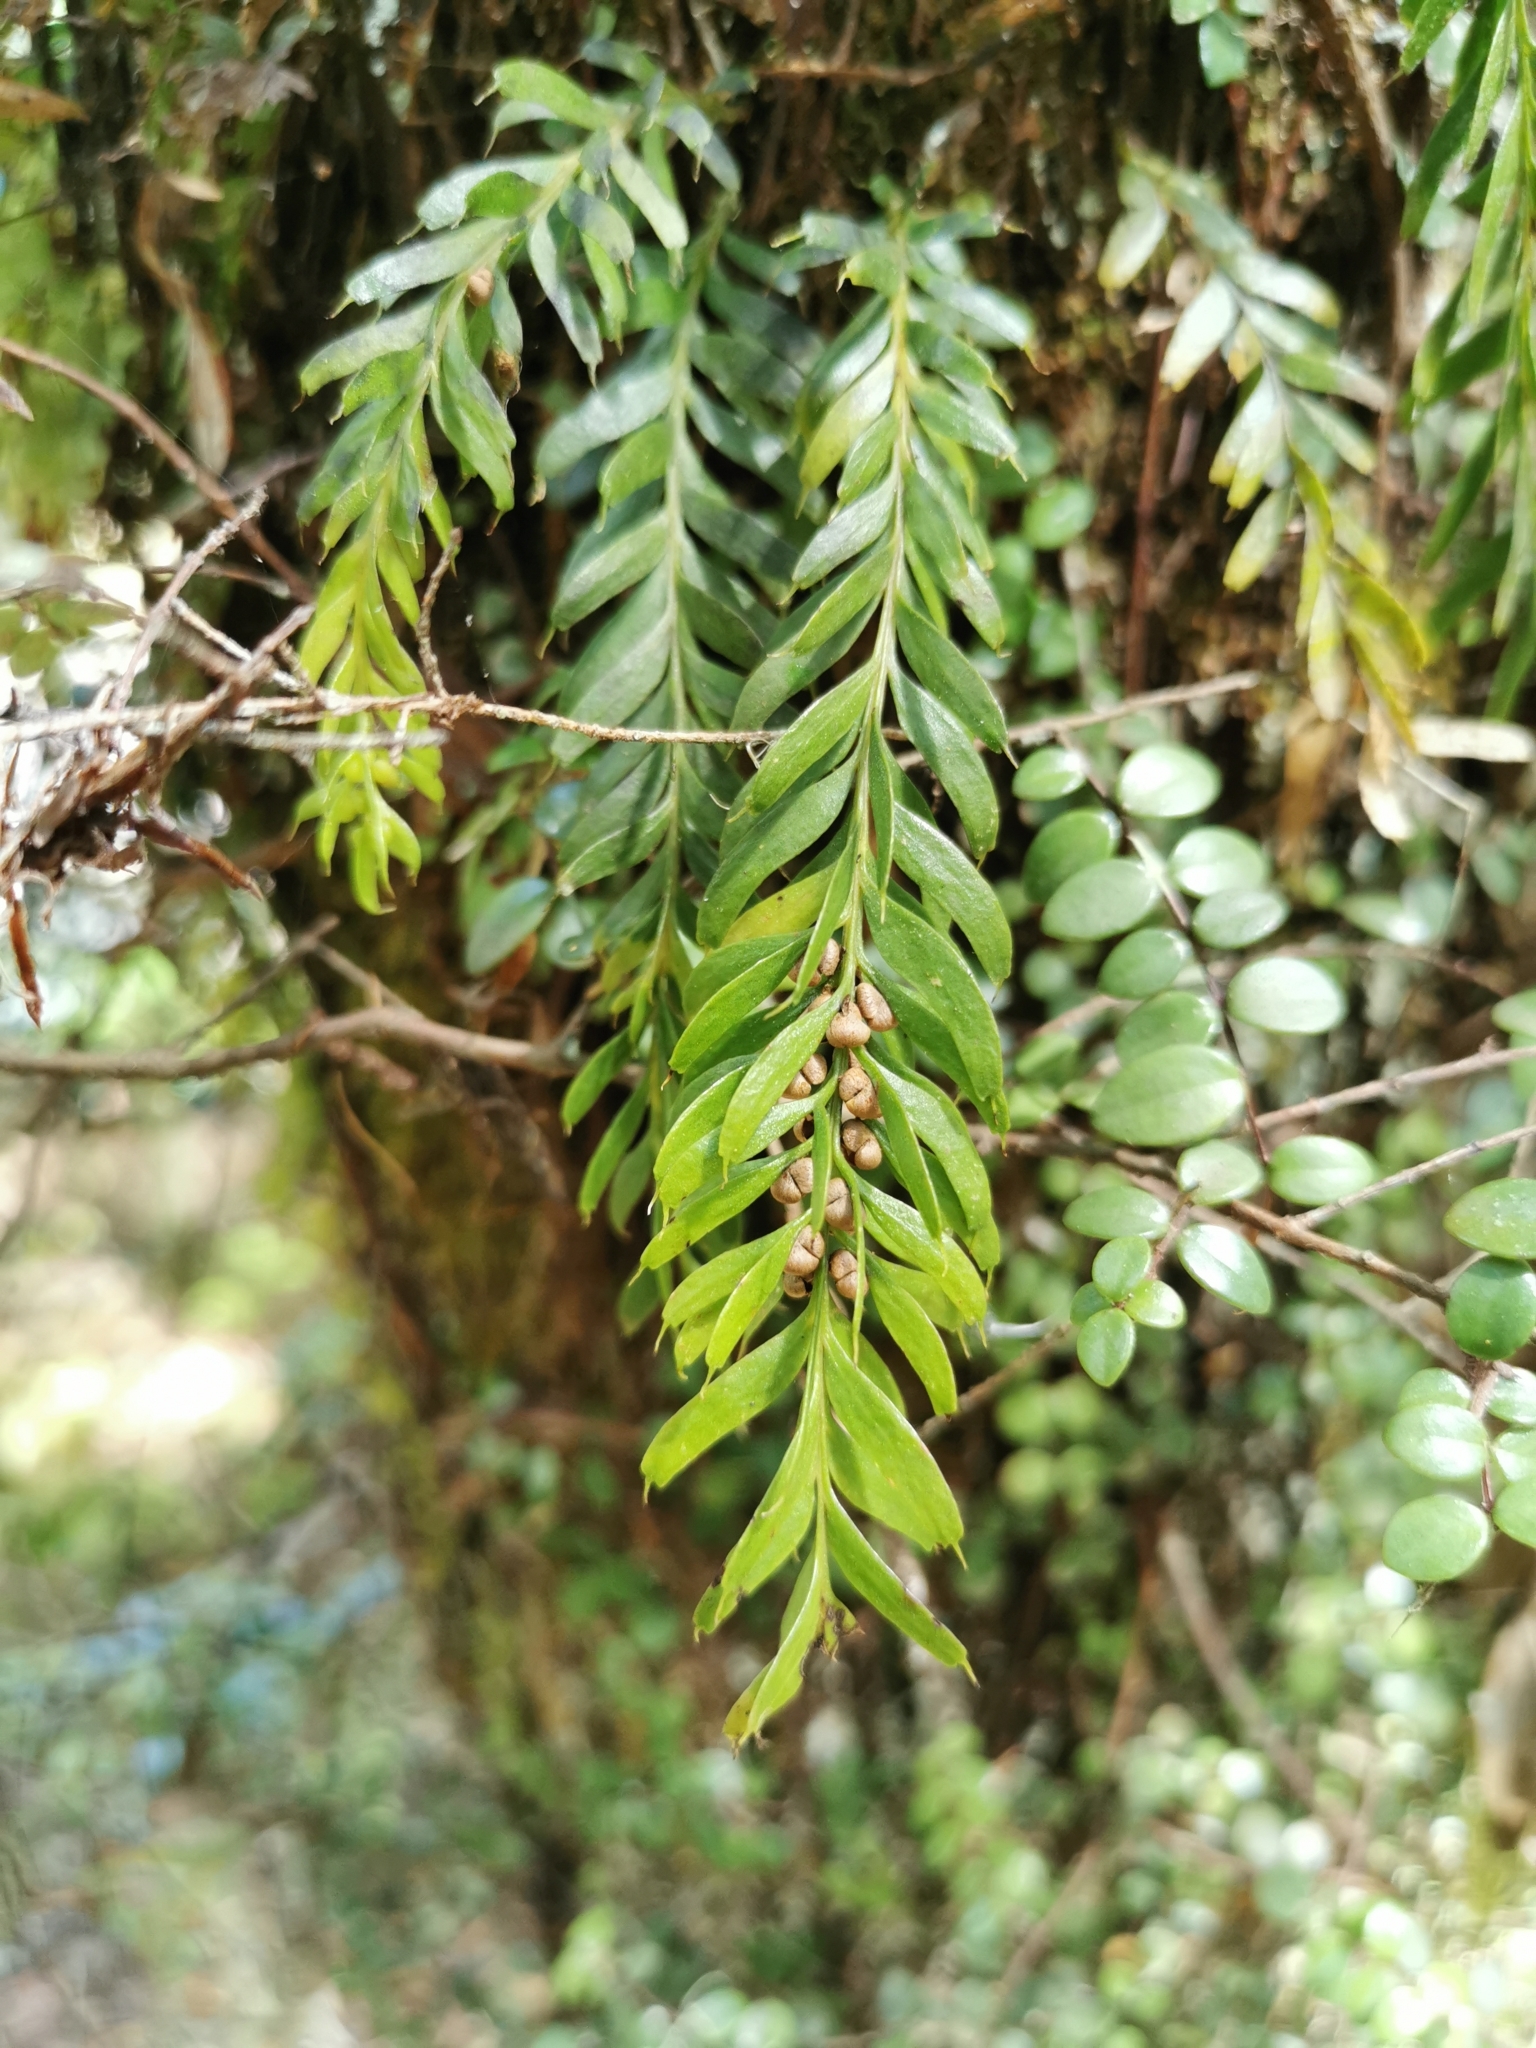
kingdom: Plantae
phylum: Tracheophyta
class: Polypodiopsida
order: Psilotales
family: Psilotaceae
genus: Tmesipteris
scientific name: Tmesipteris sigmatifolia
